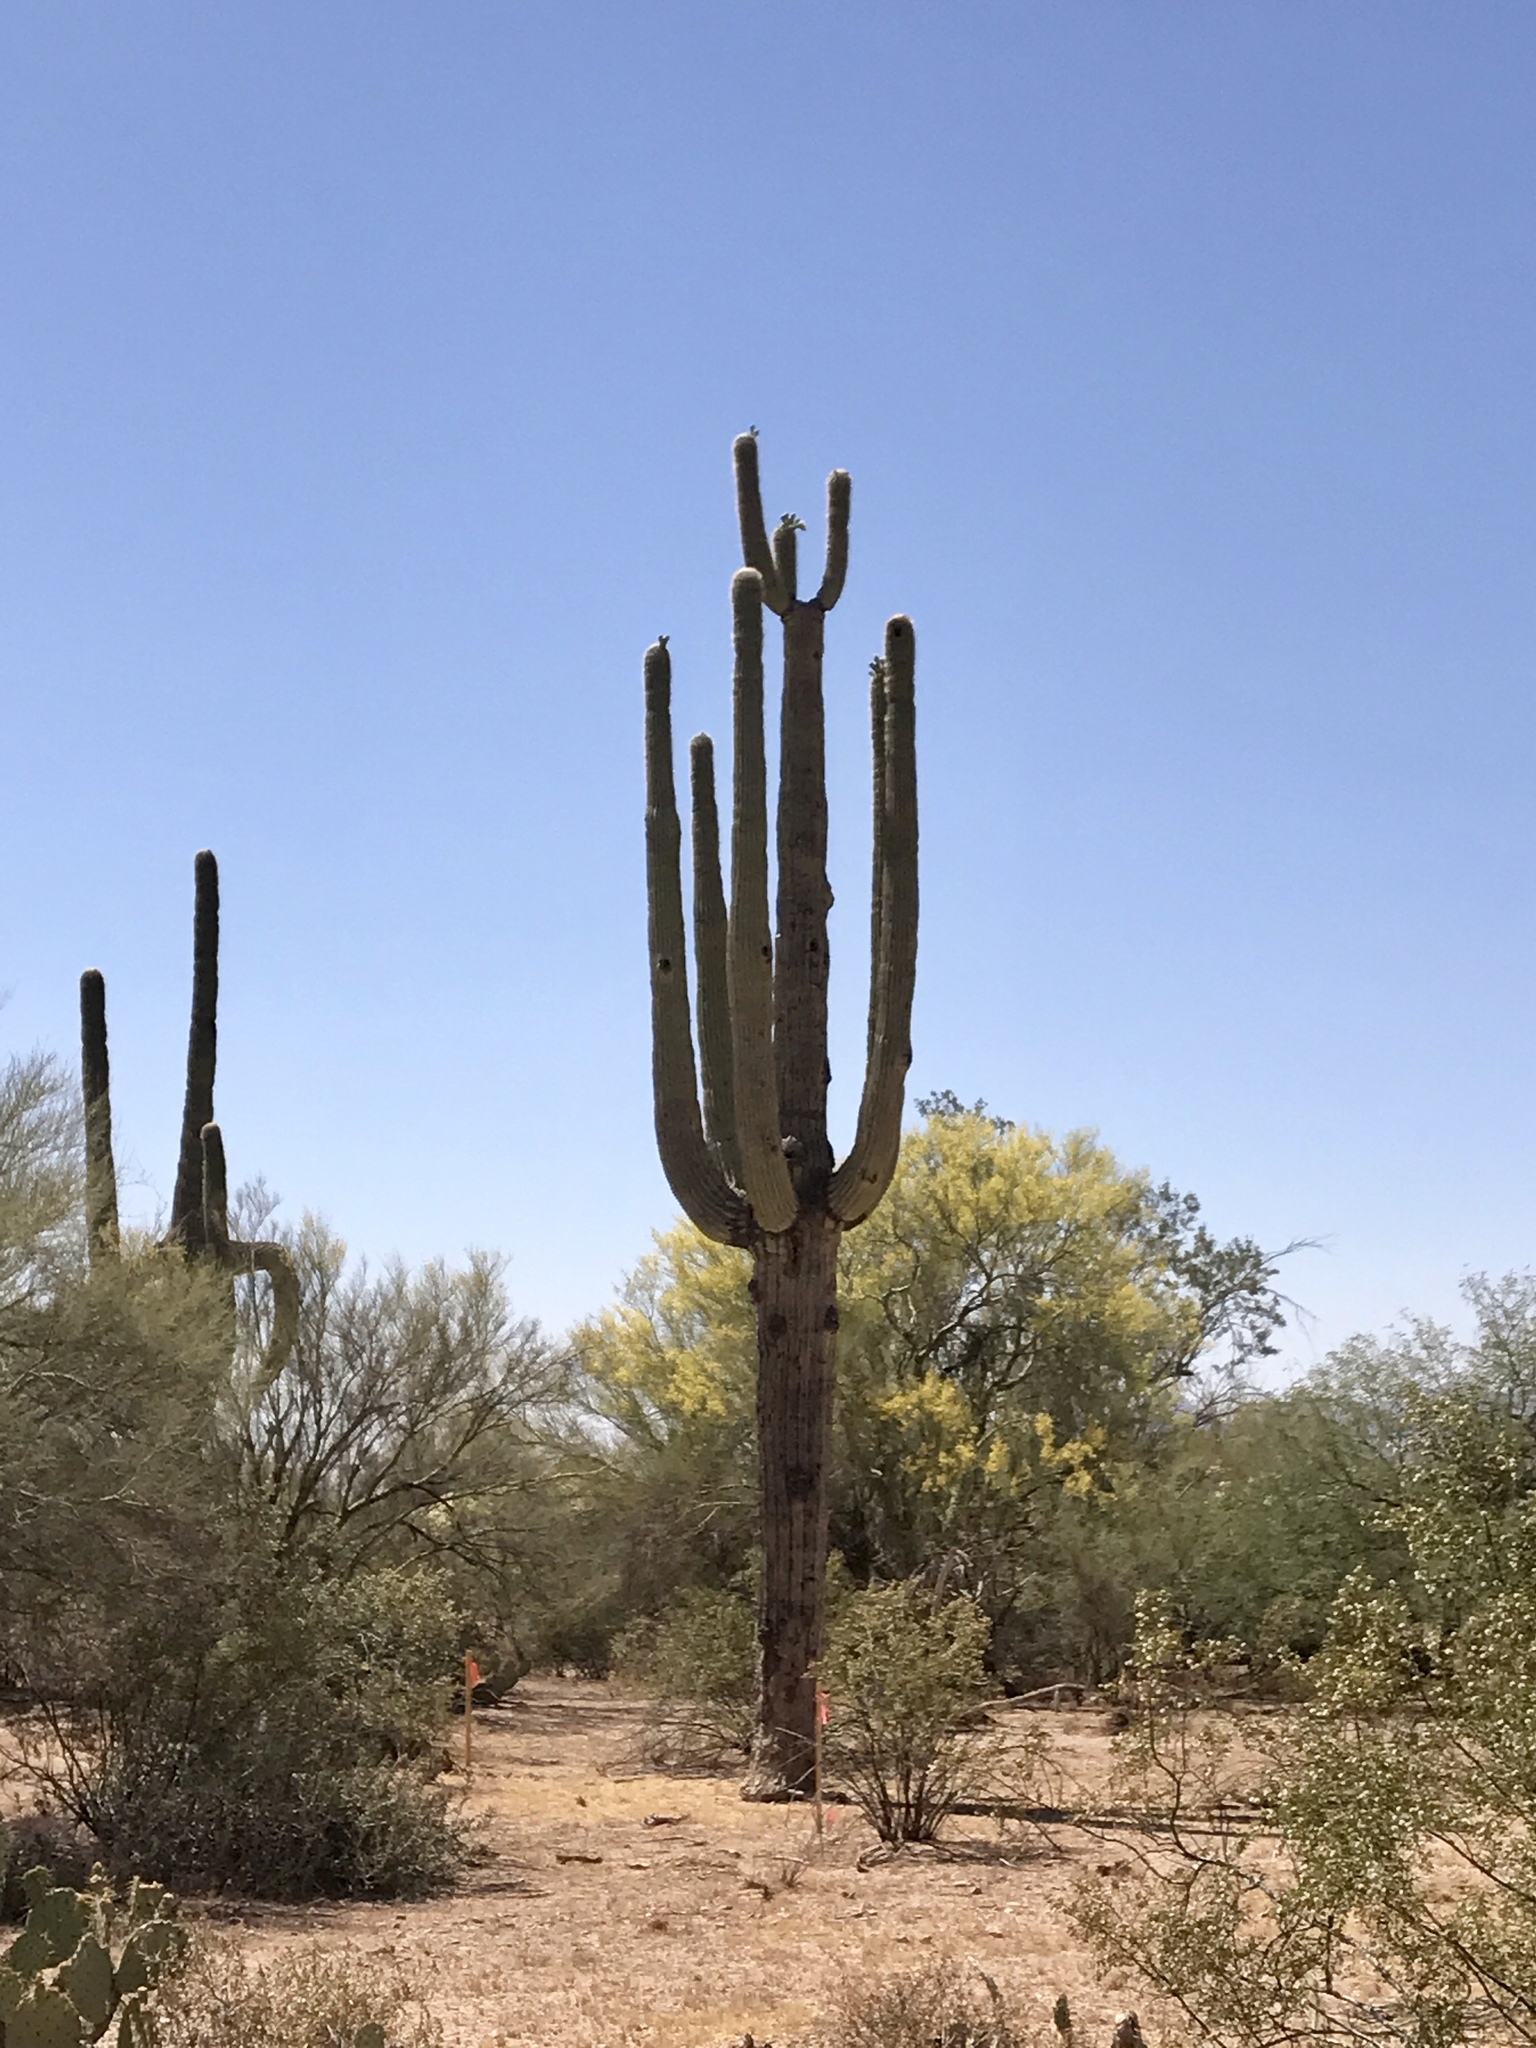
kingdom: Plantae
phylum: Tracheophyta
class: Magnoliopsida
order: Caryophyllales
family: Cactaceae
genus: Carnegiea
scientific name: Carnegiea gigantea
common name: Saguaro
